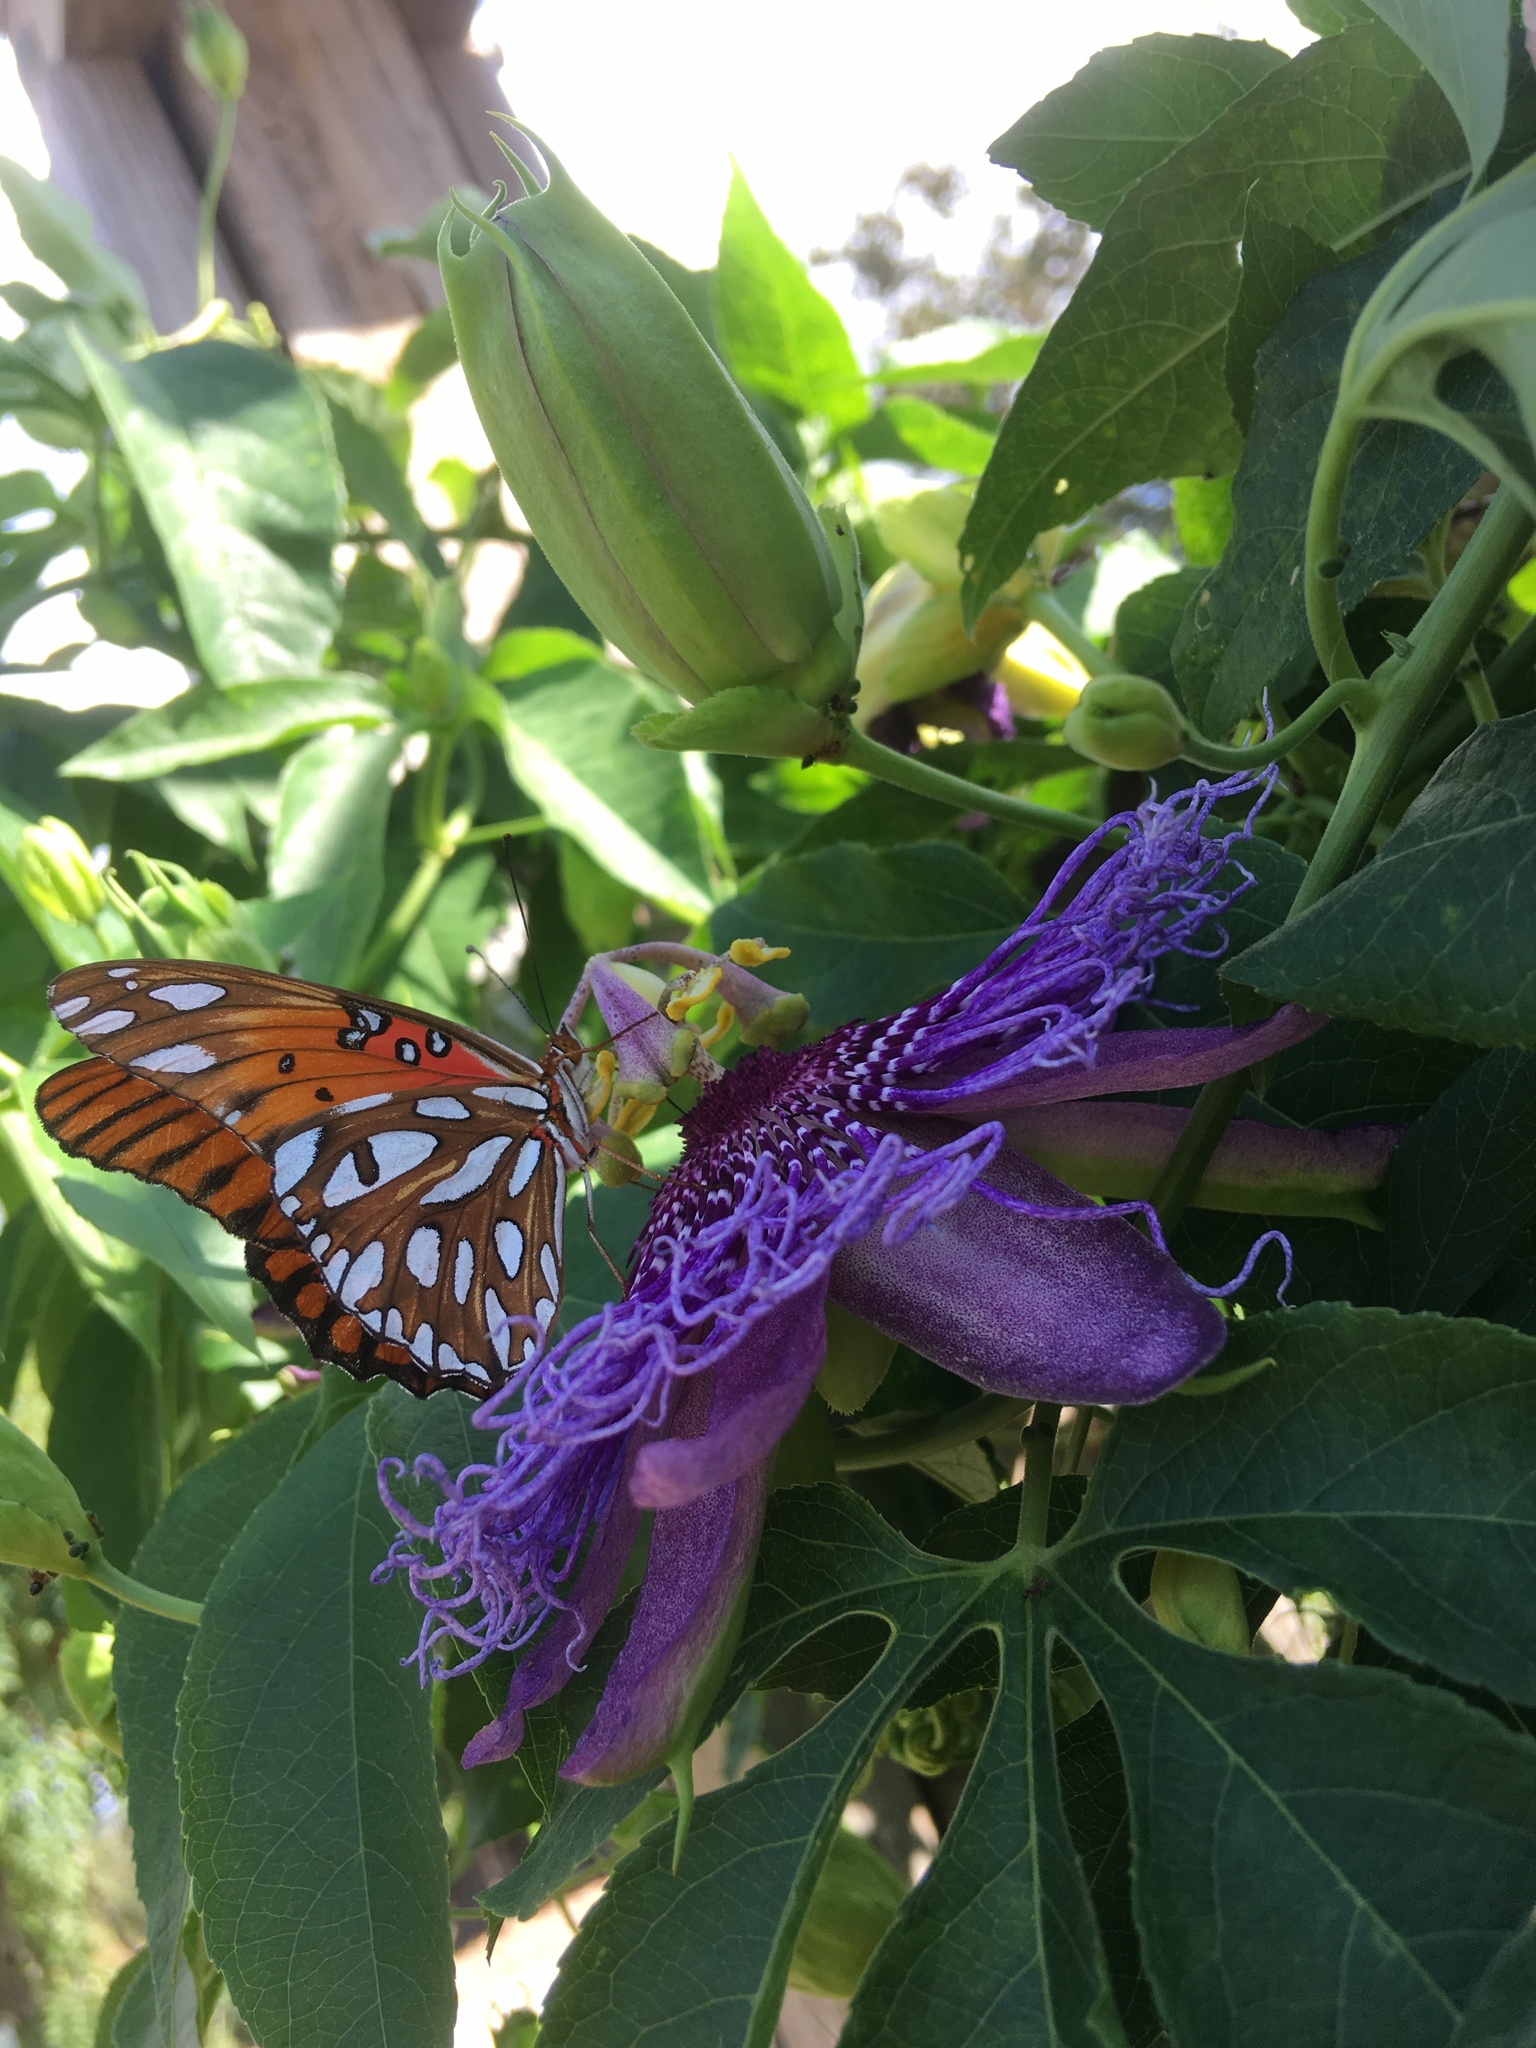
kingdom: Animalia
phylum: Arthropoda
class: Insecta
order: Lepidoptera
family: Nymphalidae
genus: Dione
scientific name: Dione vanillae
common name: Gulf fritillary
